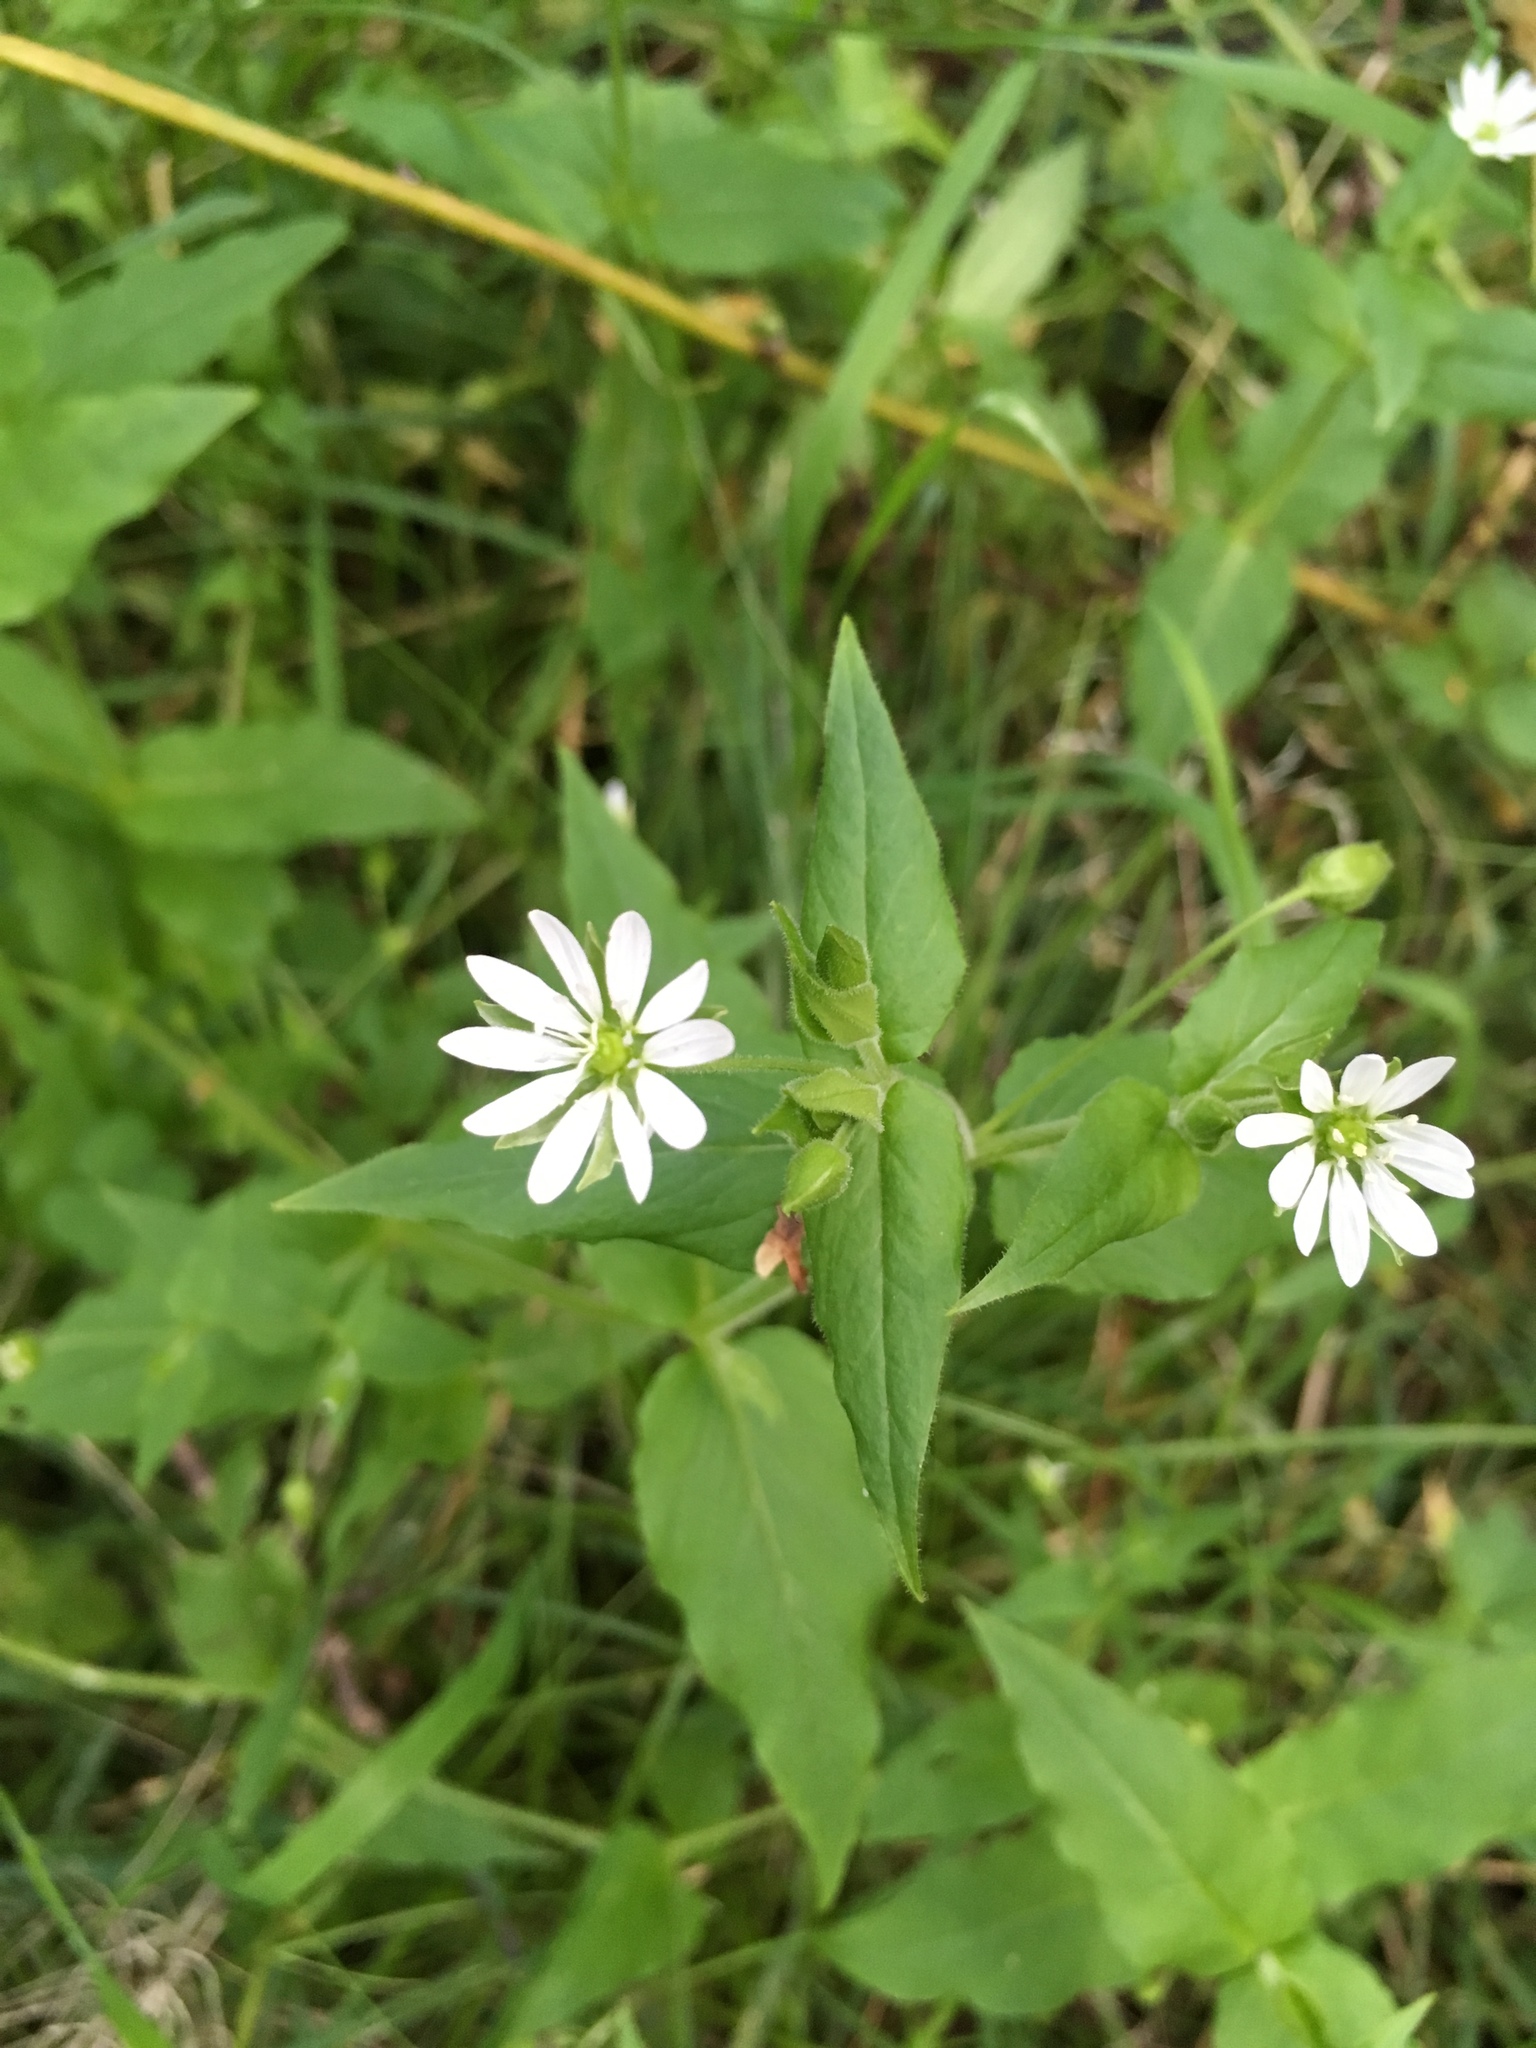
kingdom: Plantae
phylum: Tracheophyta
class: Magnoliopsida
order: Caryophyllales
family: Caryophyllaceae
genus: Stellaria
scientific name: Stellaria aquatica
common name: Water chickweed
